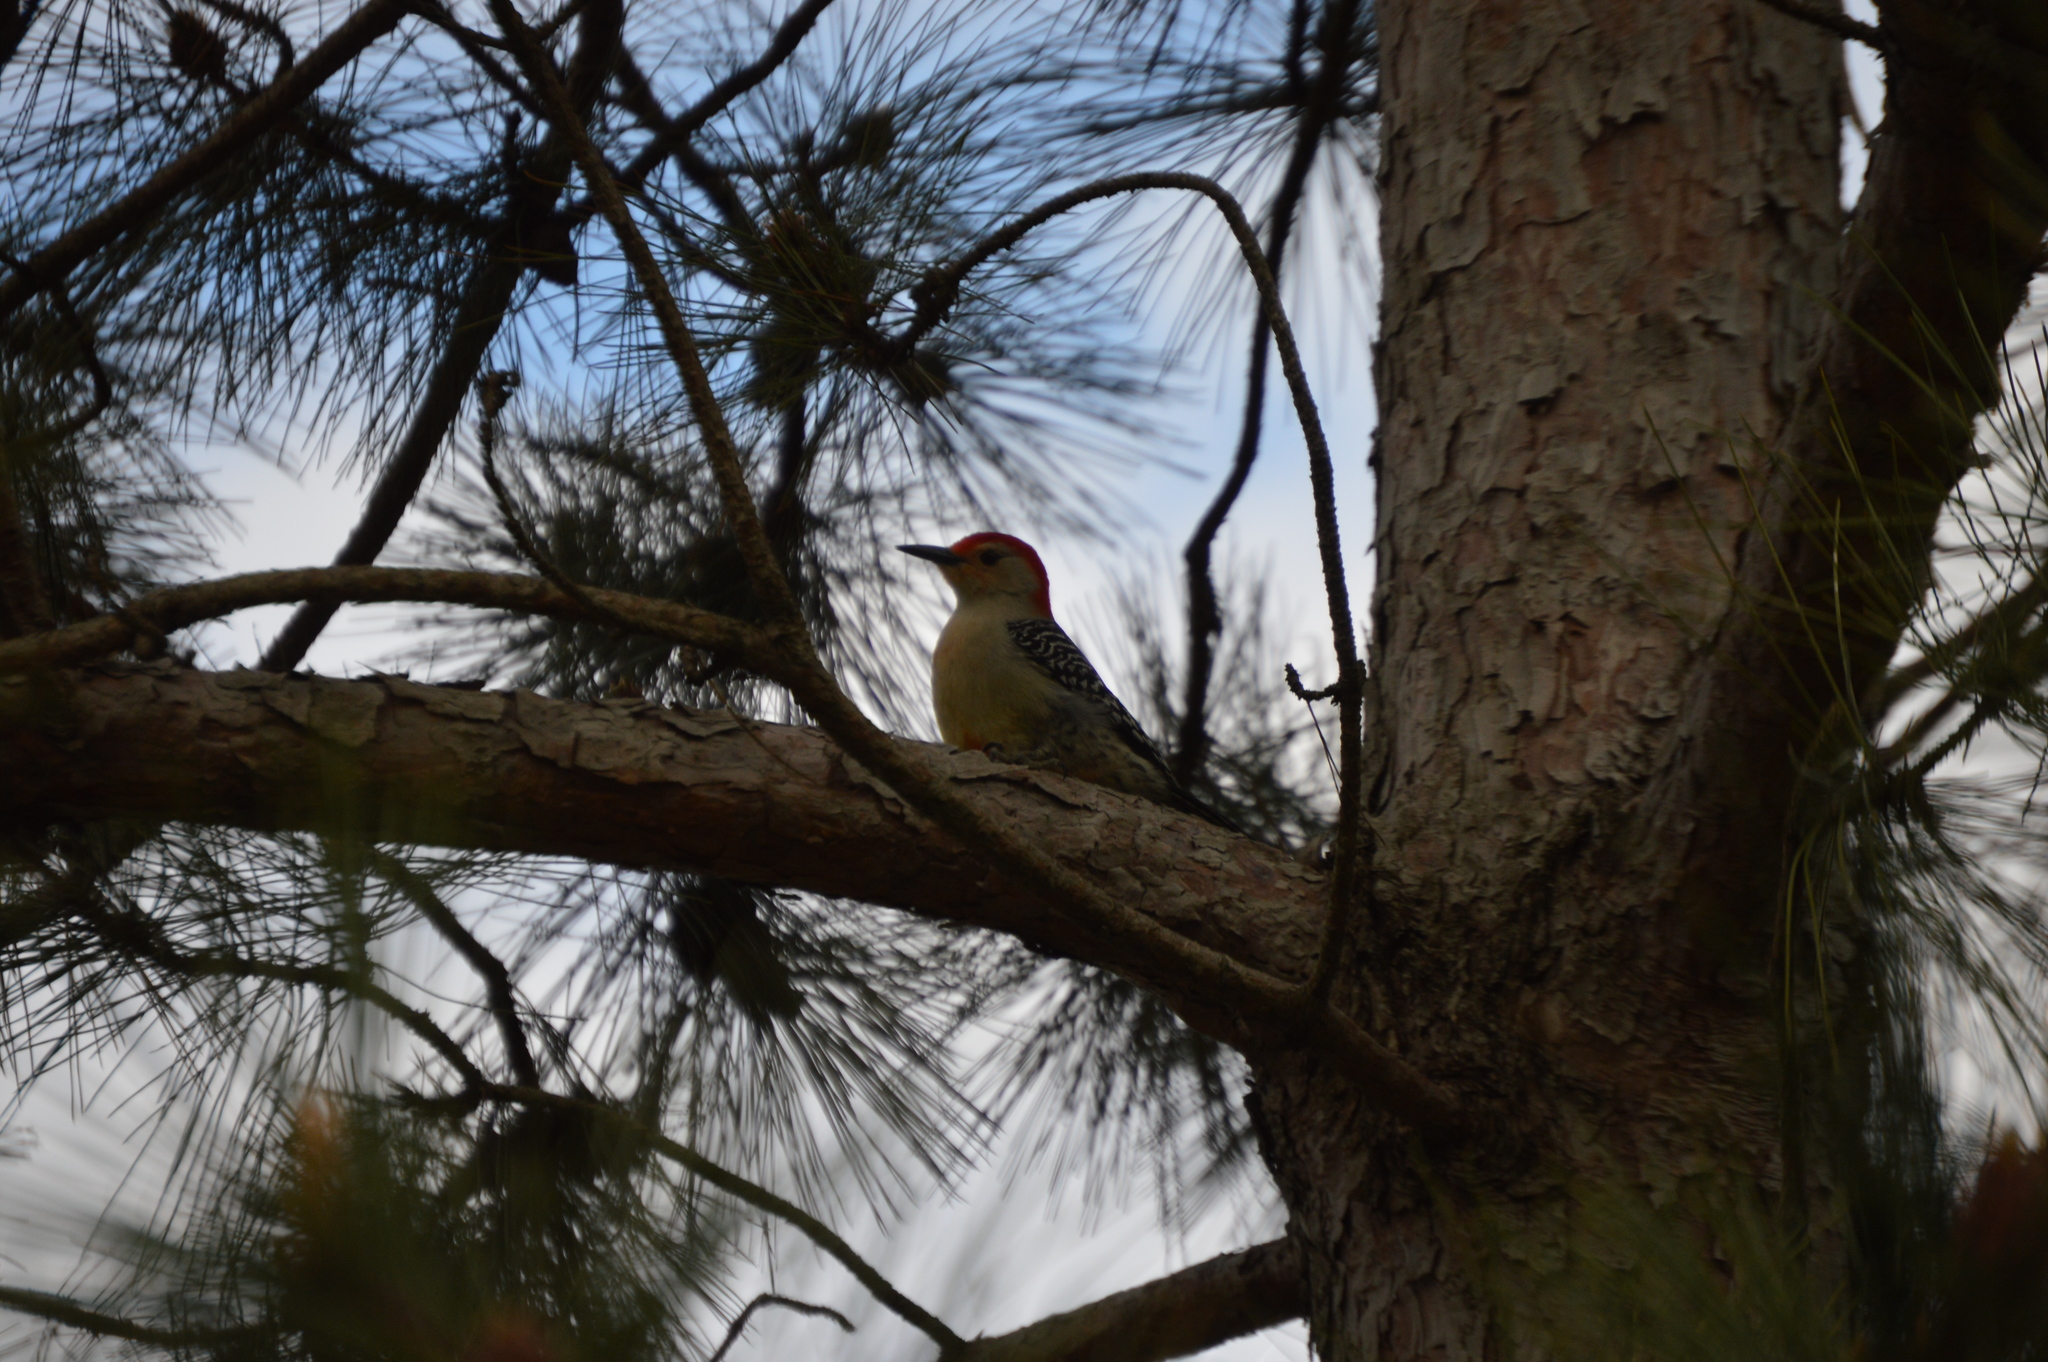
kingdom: Animalia
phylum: Chordata
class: Aves
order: Piciformes
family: Picidae
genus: Melanerpes
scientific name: Melanerpes carolinus
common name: Red-bellied woodpecker
